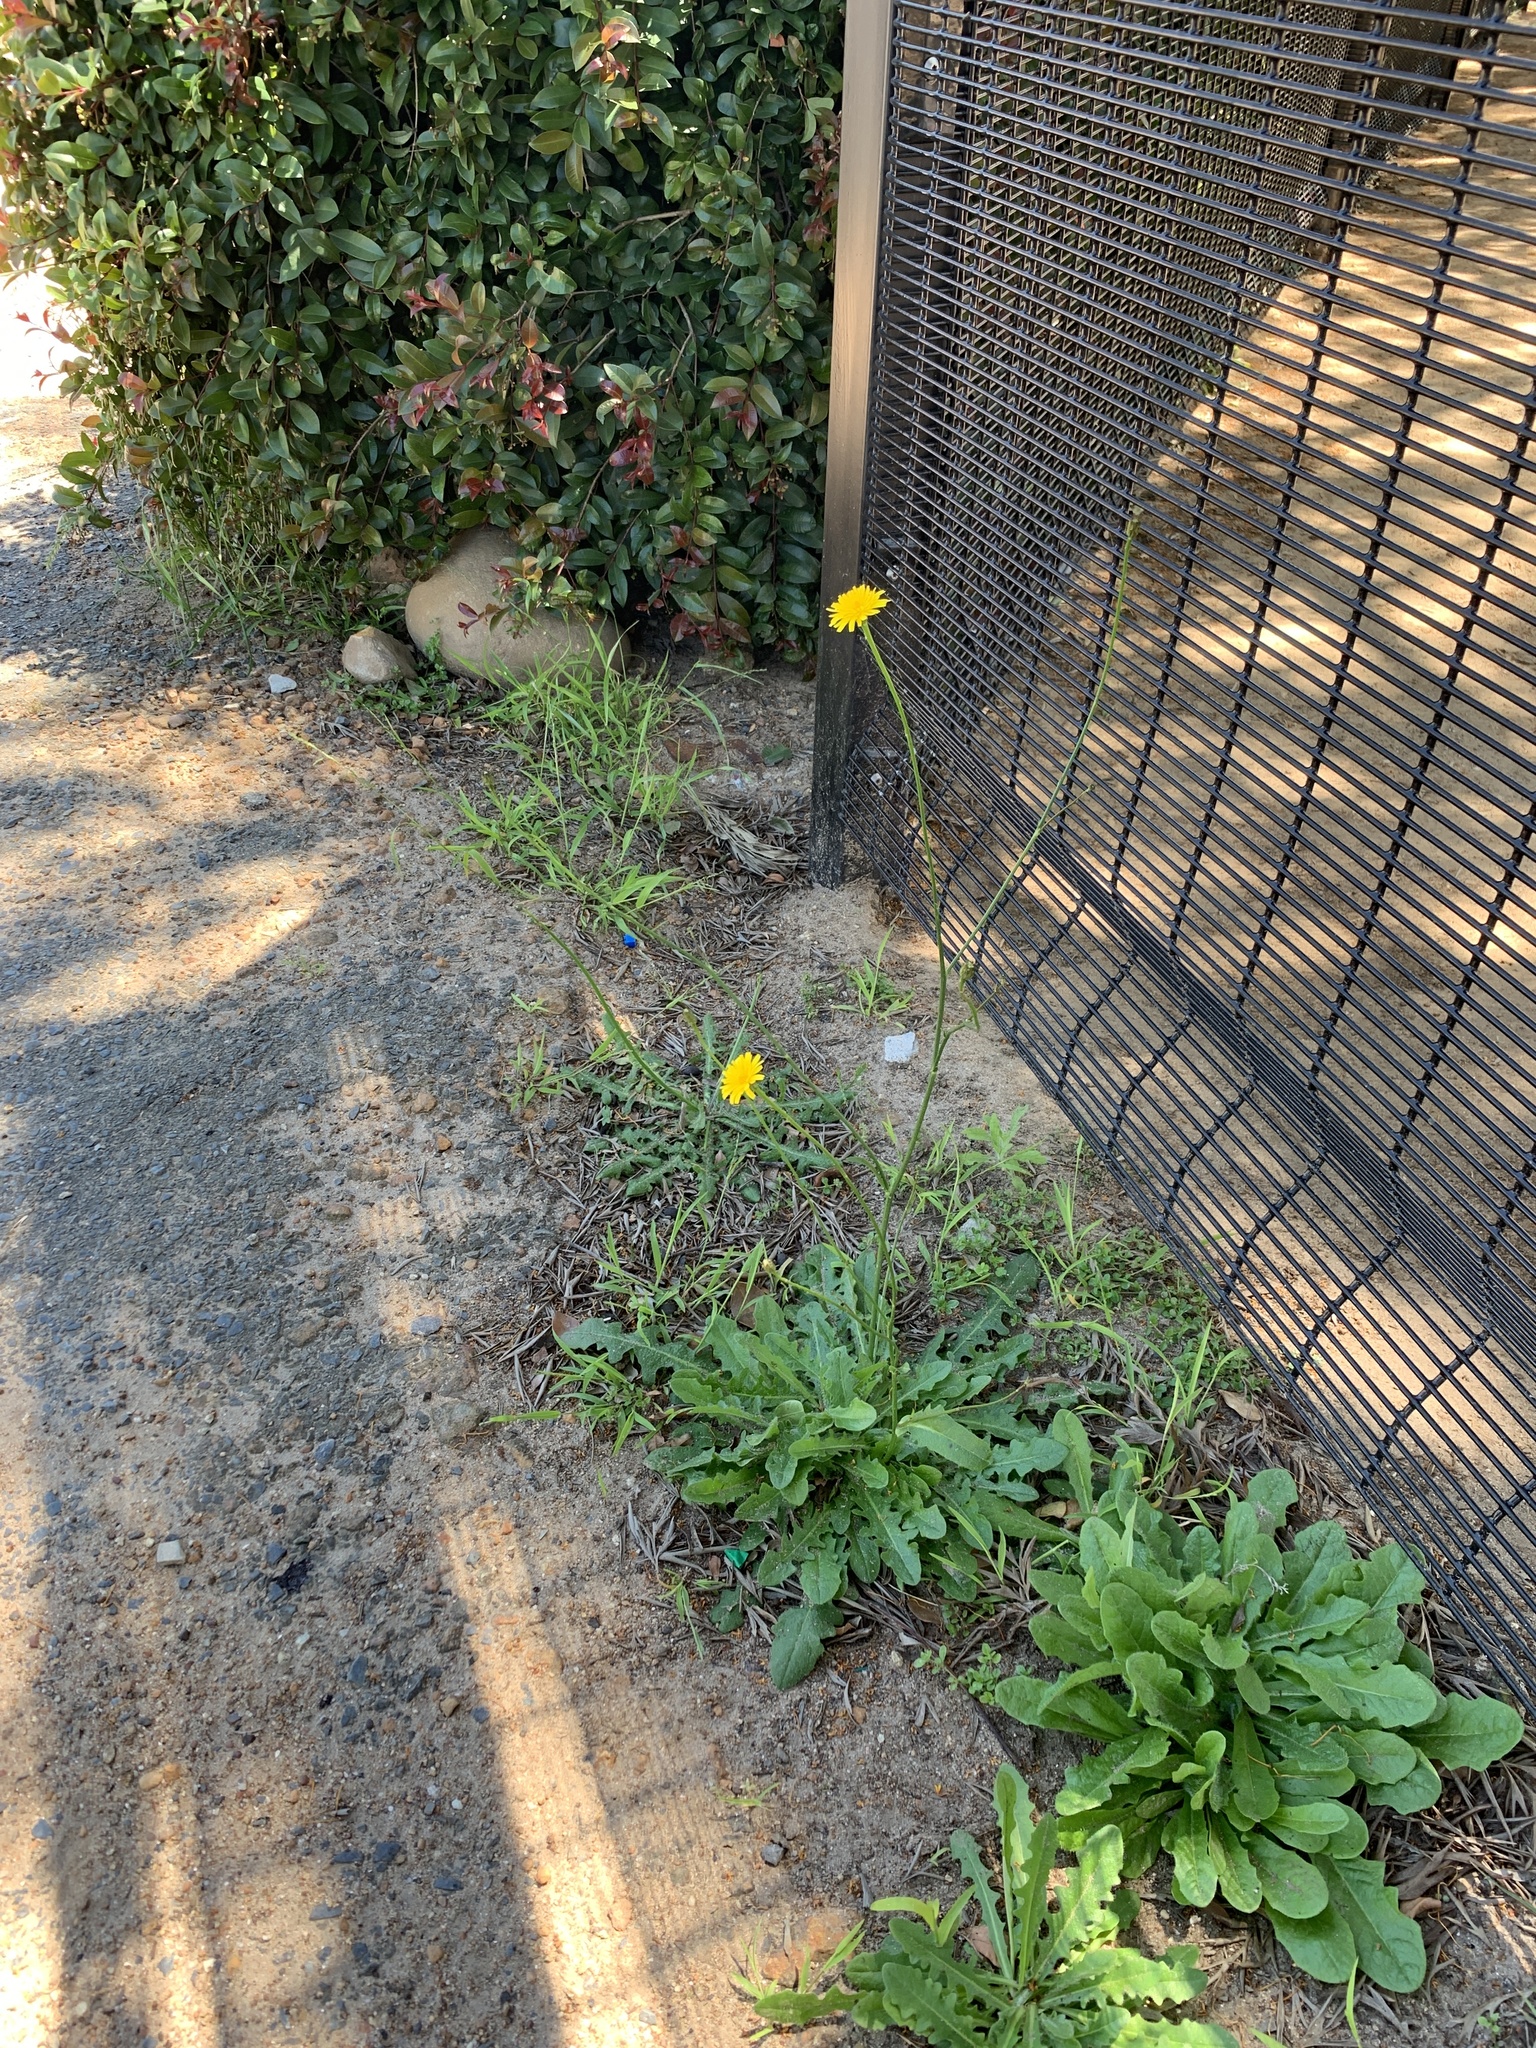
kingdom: Plantae
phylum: Tracheophyta
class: Magnoliopsida
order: Asterales
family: Asteraceae
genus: Hypochaeris
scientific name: Hypochaeris radicata
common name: Flatweed
